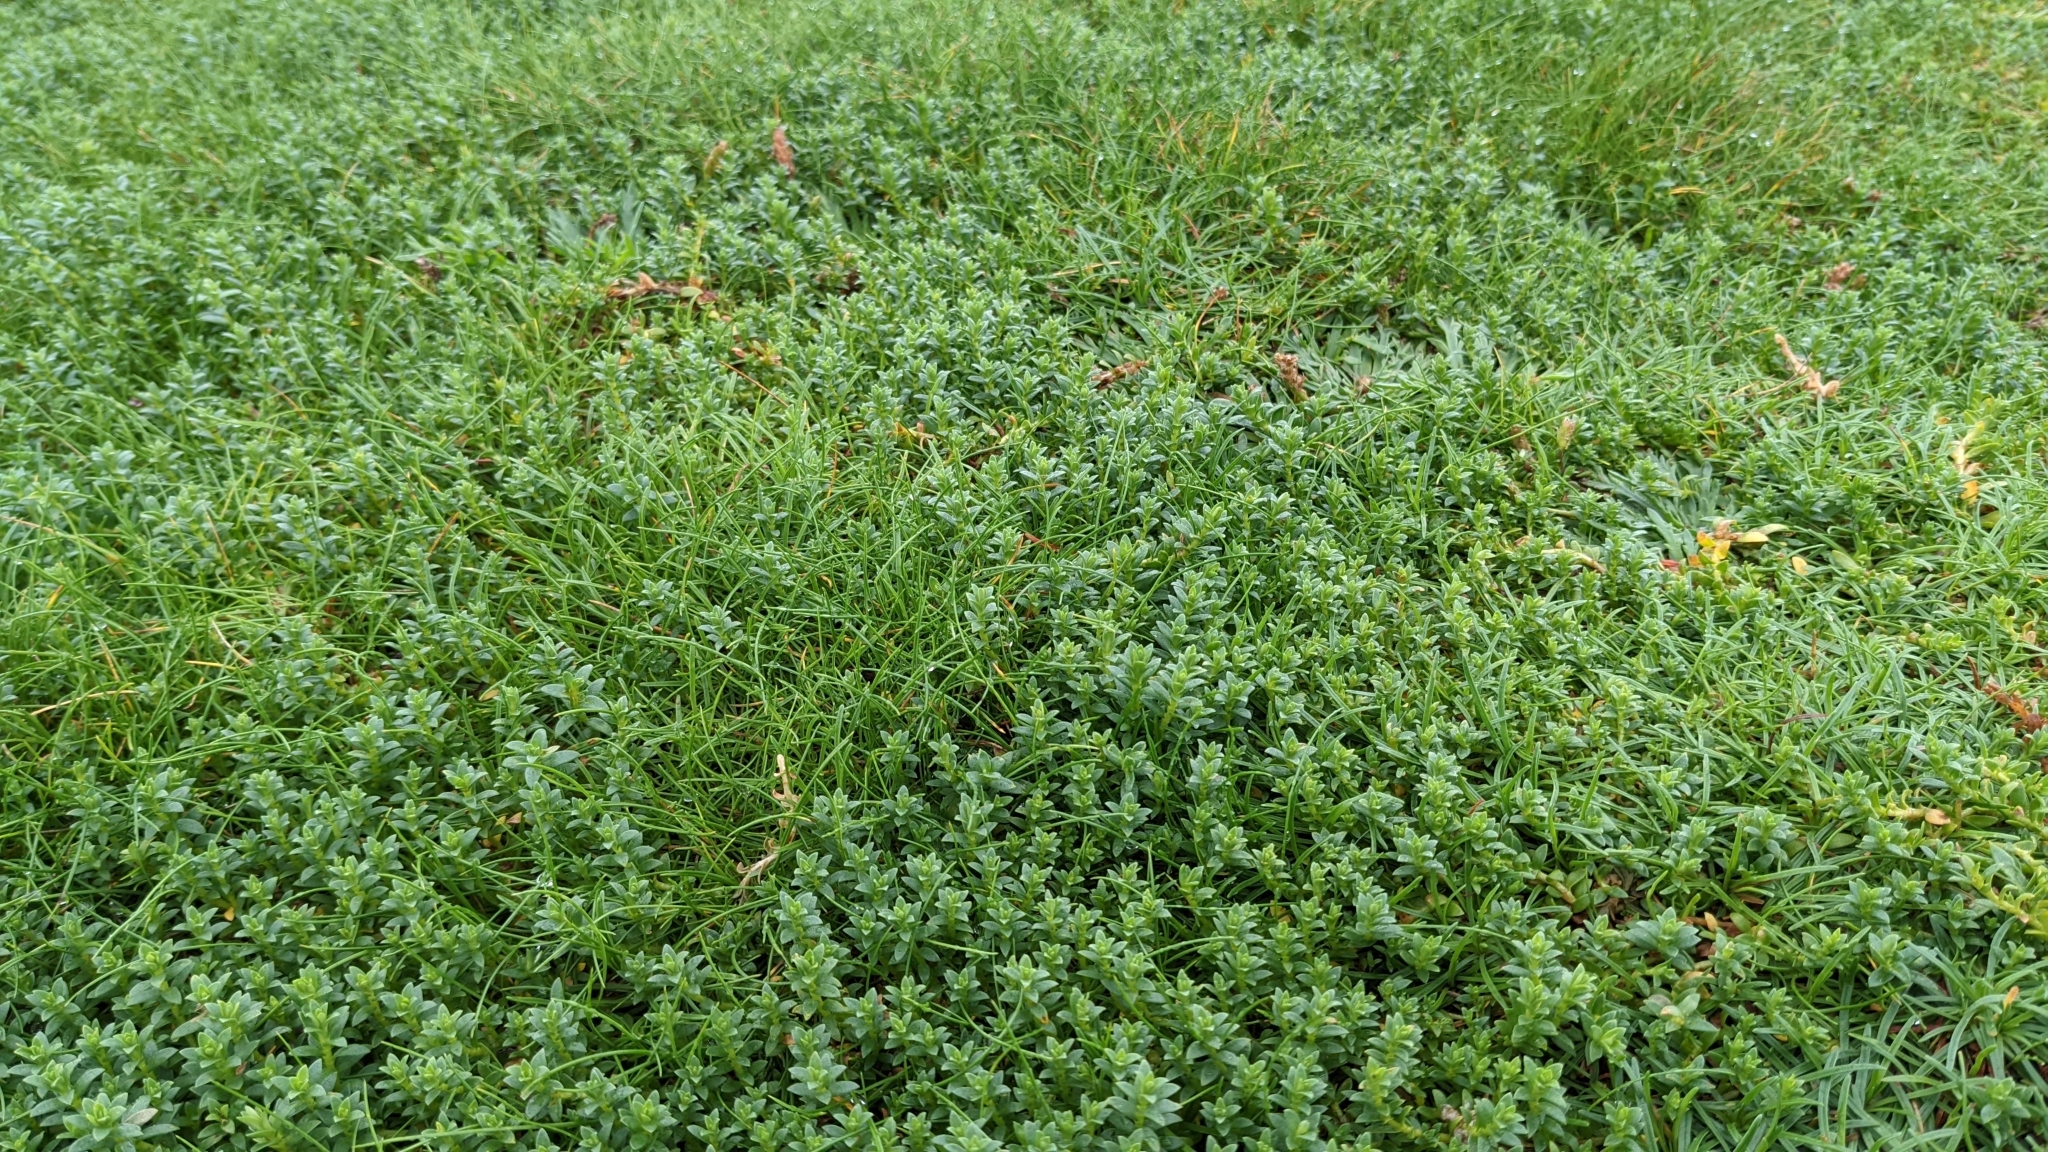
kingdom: Plantae
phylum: Tracheophyta
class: Magnoliopsida
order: Ericales
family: Primulaceae
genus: Lysimachia
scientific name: Lysimachia maritima
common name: Sea milkwort
